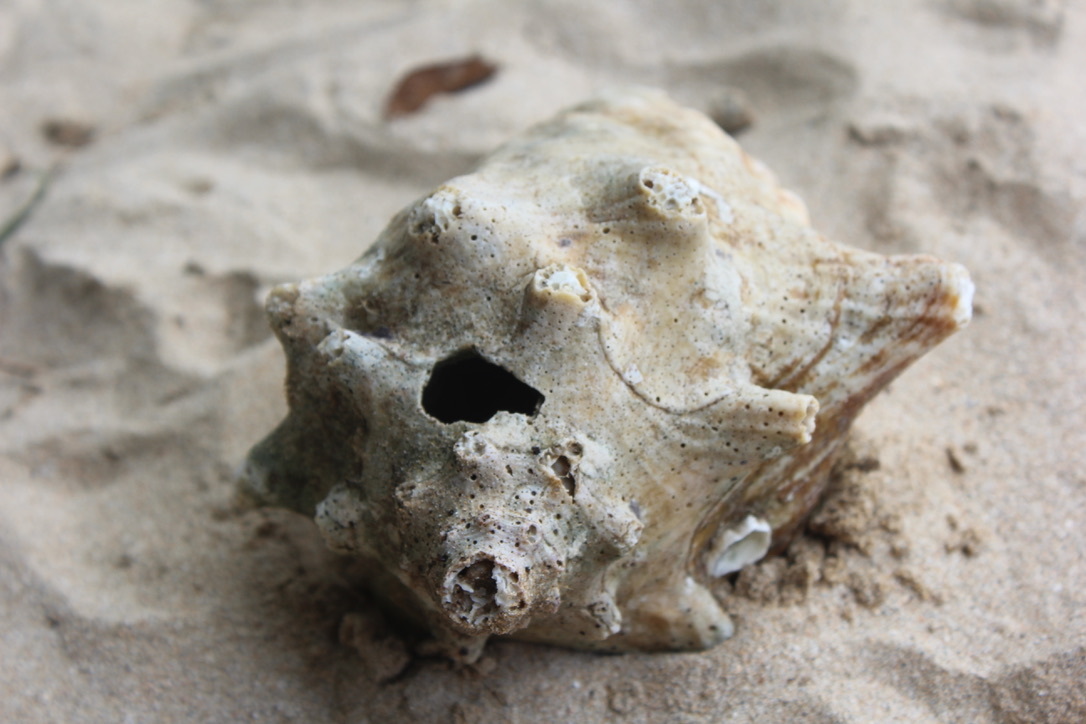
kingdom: Animalia
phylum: Mollusca
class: Gastropoda
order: Littorinimorpha
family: Strombidae
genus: Aliger
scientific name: Aliger gigas
